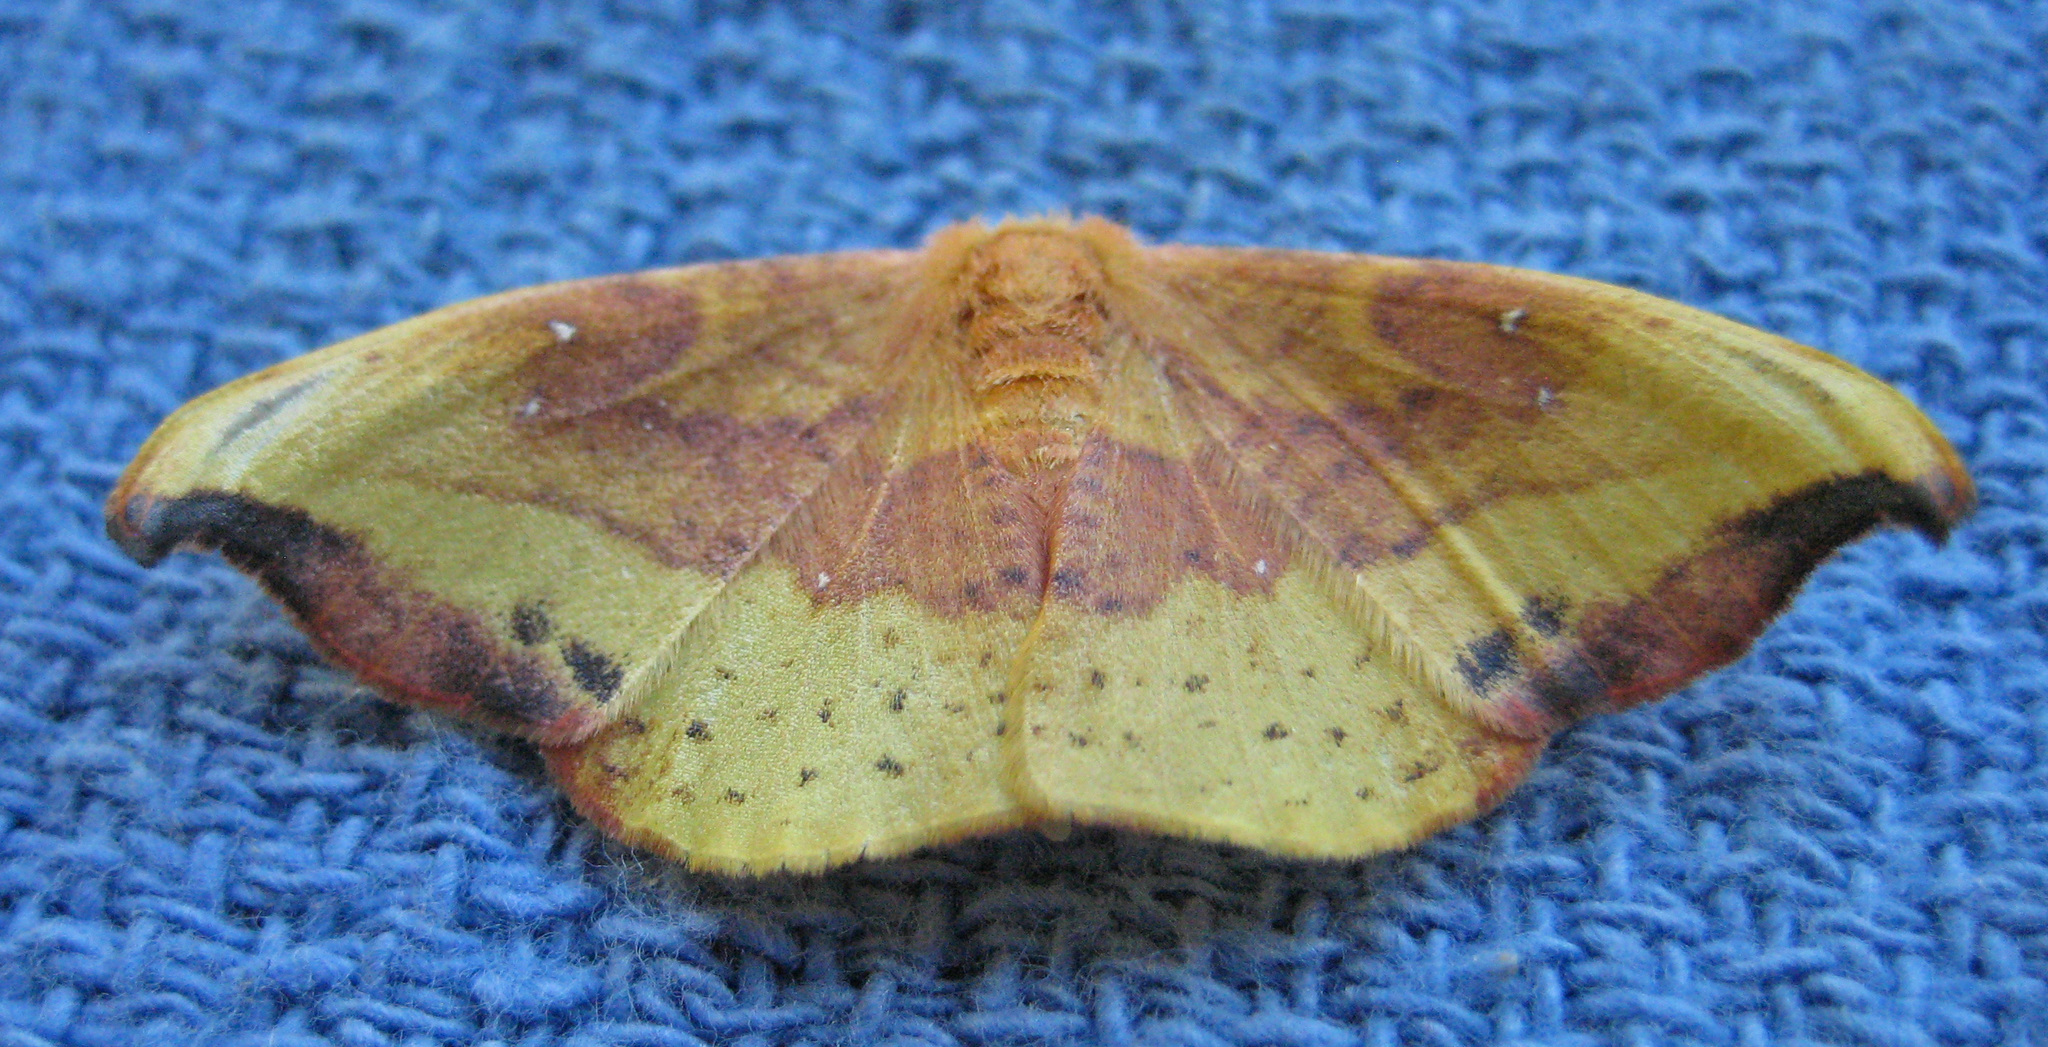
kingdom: Animalia
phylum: Arthropoda
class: Insecta
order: Lepidoptera
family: Drepanidae
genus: Oreta
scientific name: Oreta rosea
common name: Rose hooktip
